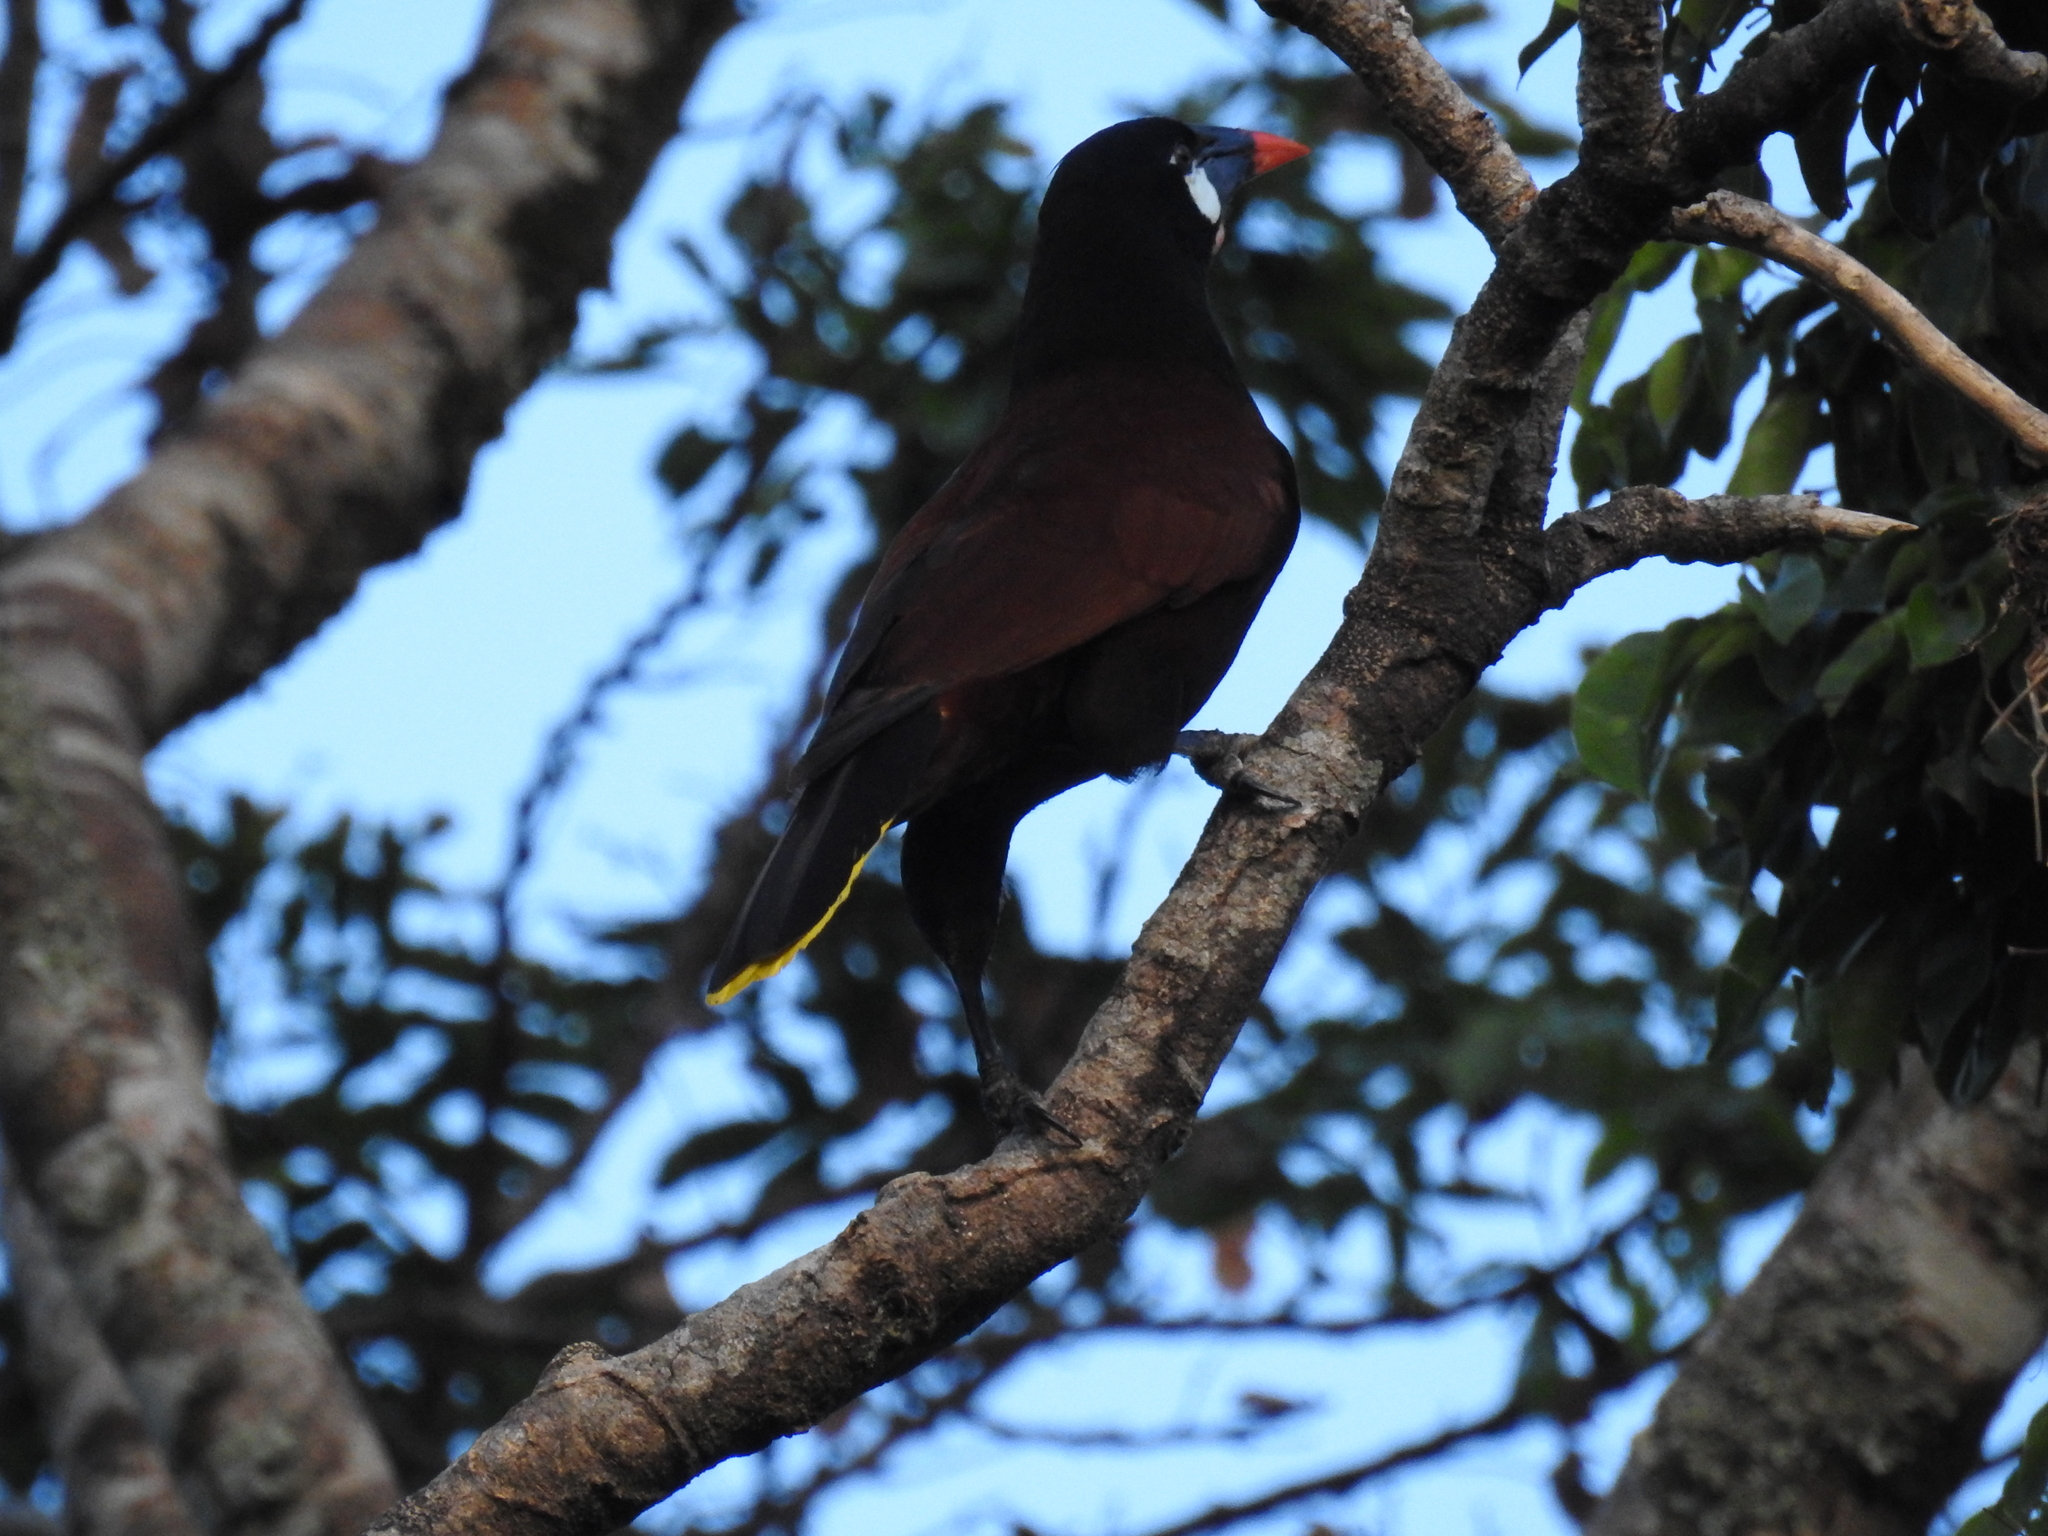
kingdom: Animalia
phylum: Chordata
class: Aves
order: Passeriformes
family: Icteridae
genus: Psarocolius
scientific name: Psarocolius montezuma
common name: Montezuma oropendola
